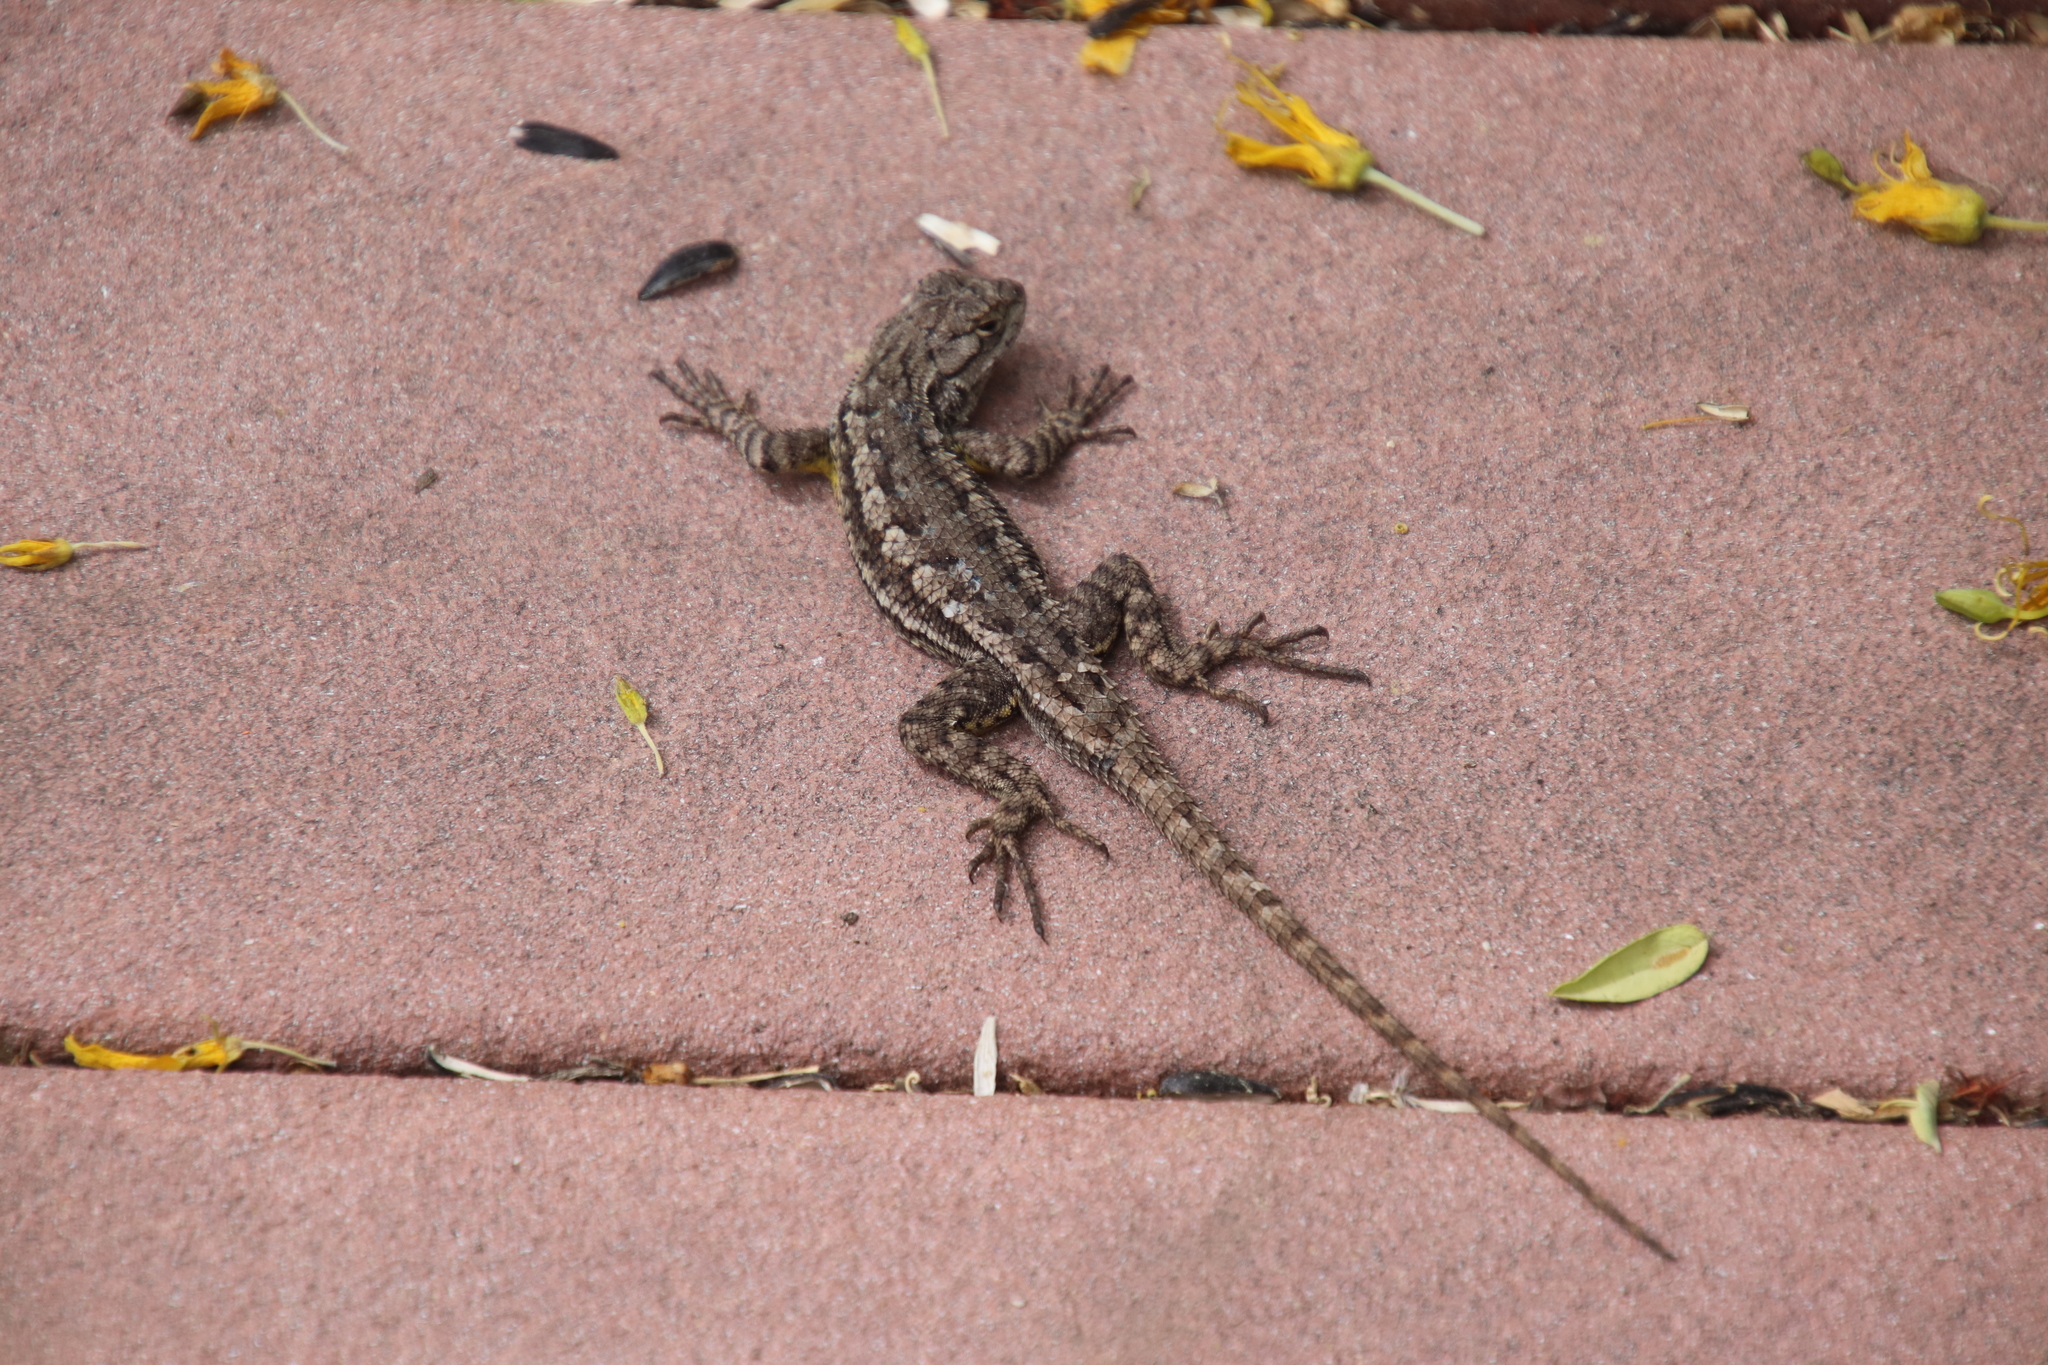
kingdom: Animalia
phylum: Chordata
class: Squamata
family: Phrynosomatidae
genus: Sceloporus
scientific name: Sceloporus occidentalis
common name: Western fence lizard
